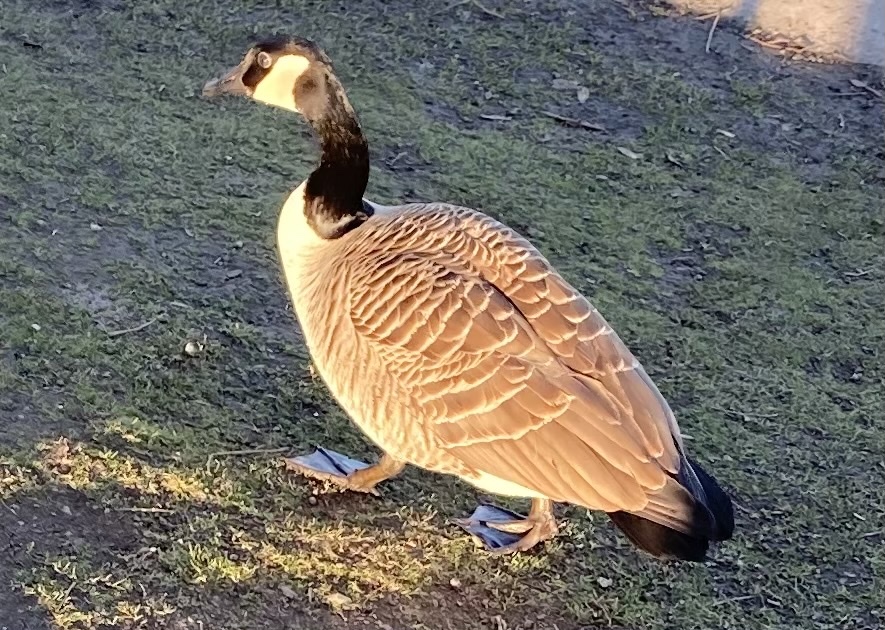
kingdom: Animalia
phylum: Chordata
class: Aves
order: Anseriformes
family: Anatidae
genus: Branta
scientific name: Branta canadensis
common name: Canada goose
